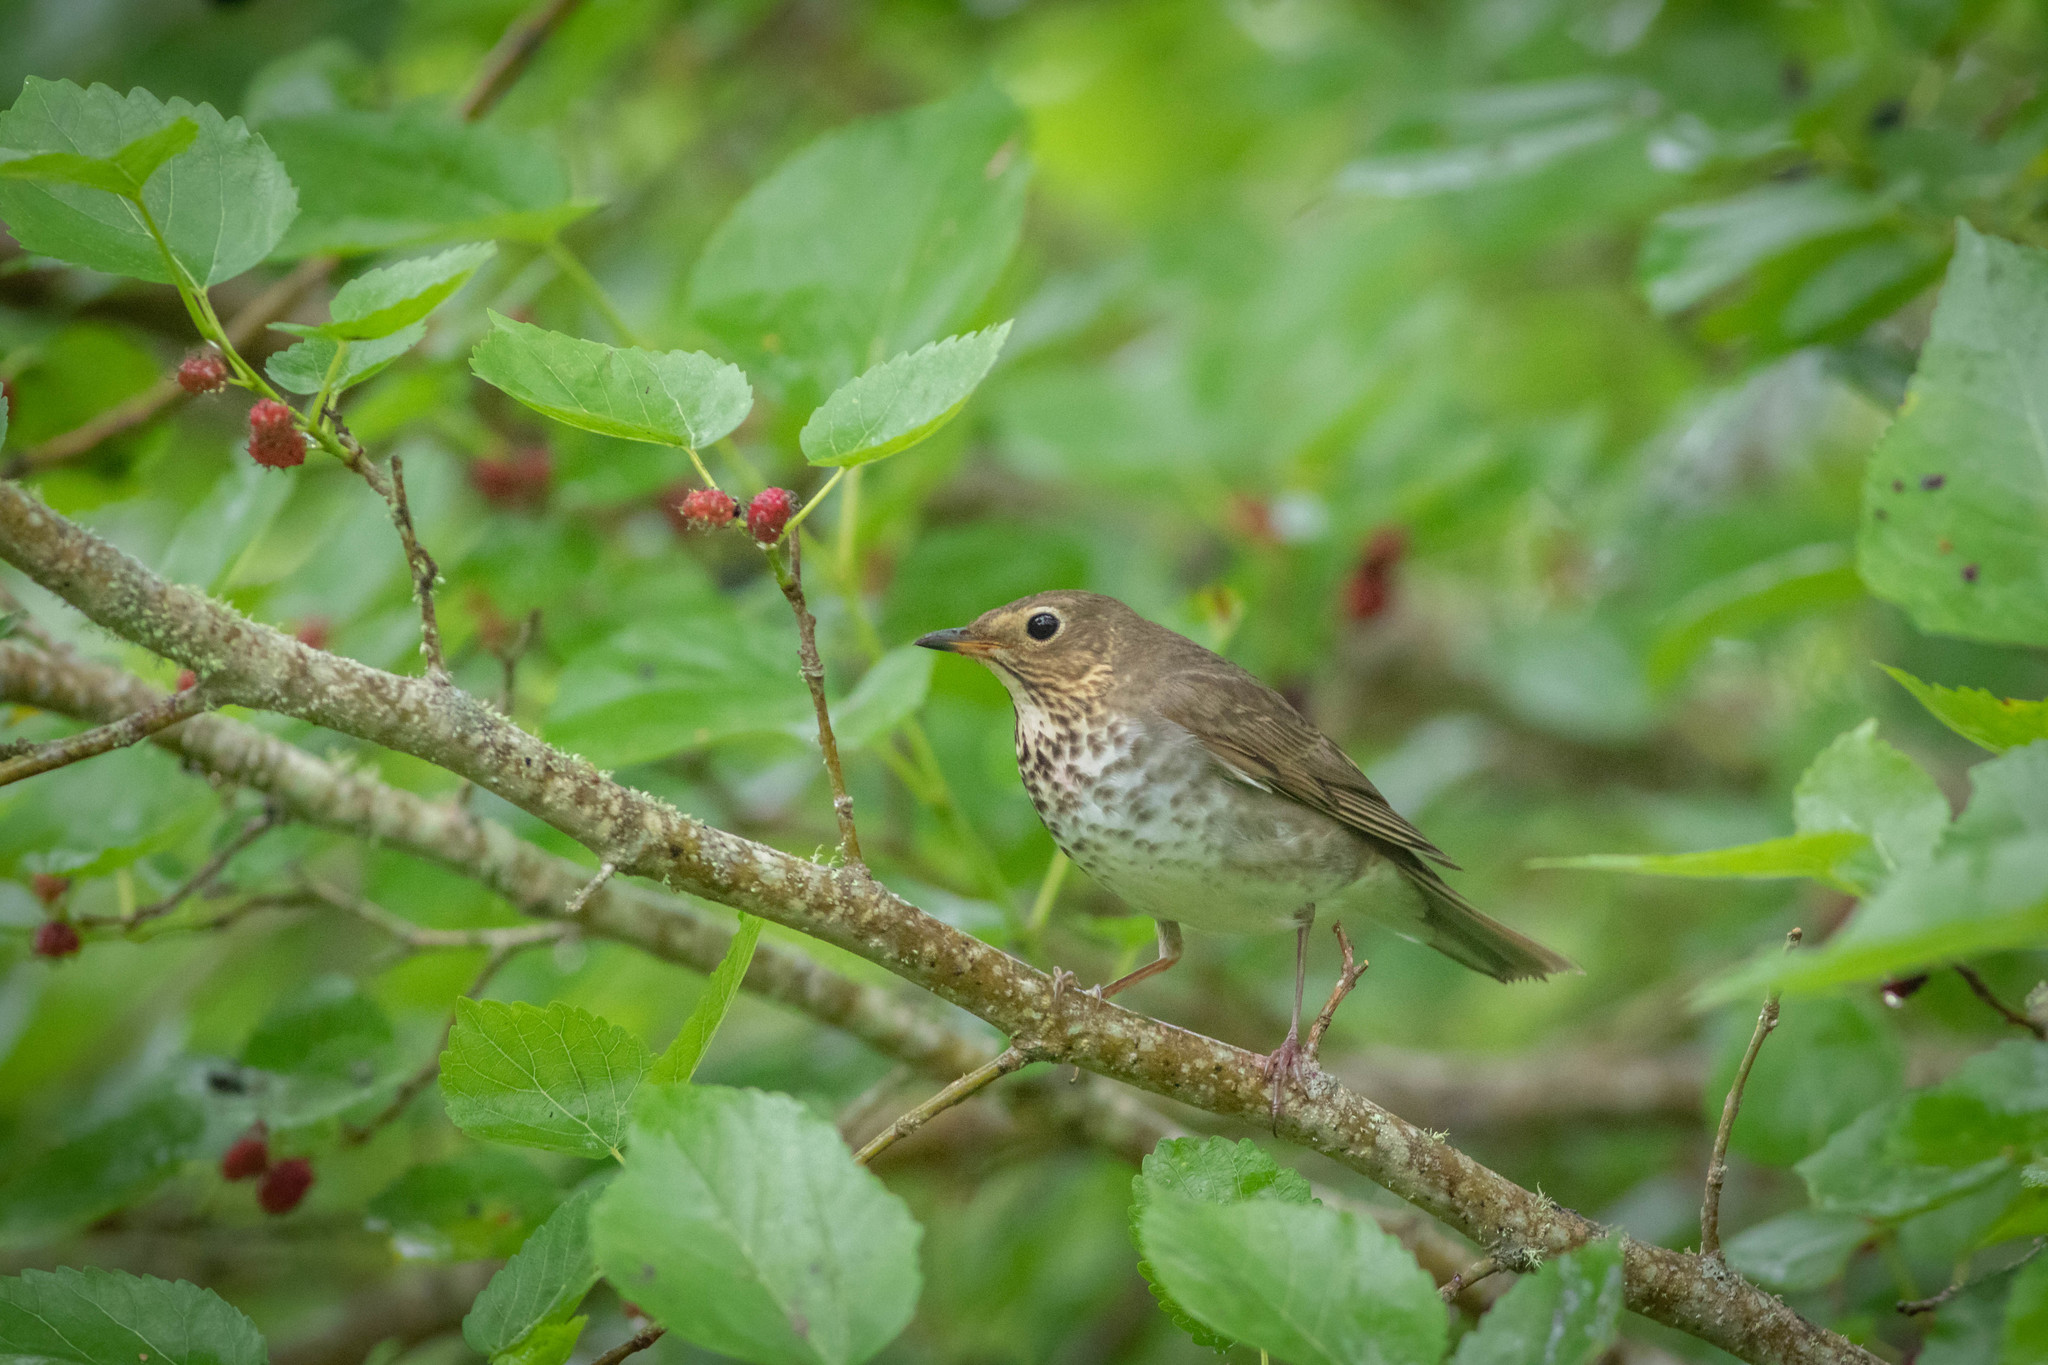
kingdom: Animalia
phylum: Chordata
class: Aves
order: Passeriformes
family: Turdidae
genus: Catharus
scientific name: Catharus ustulatus
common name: Swainson's thrush
